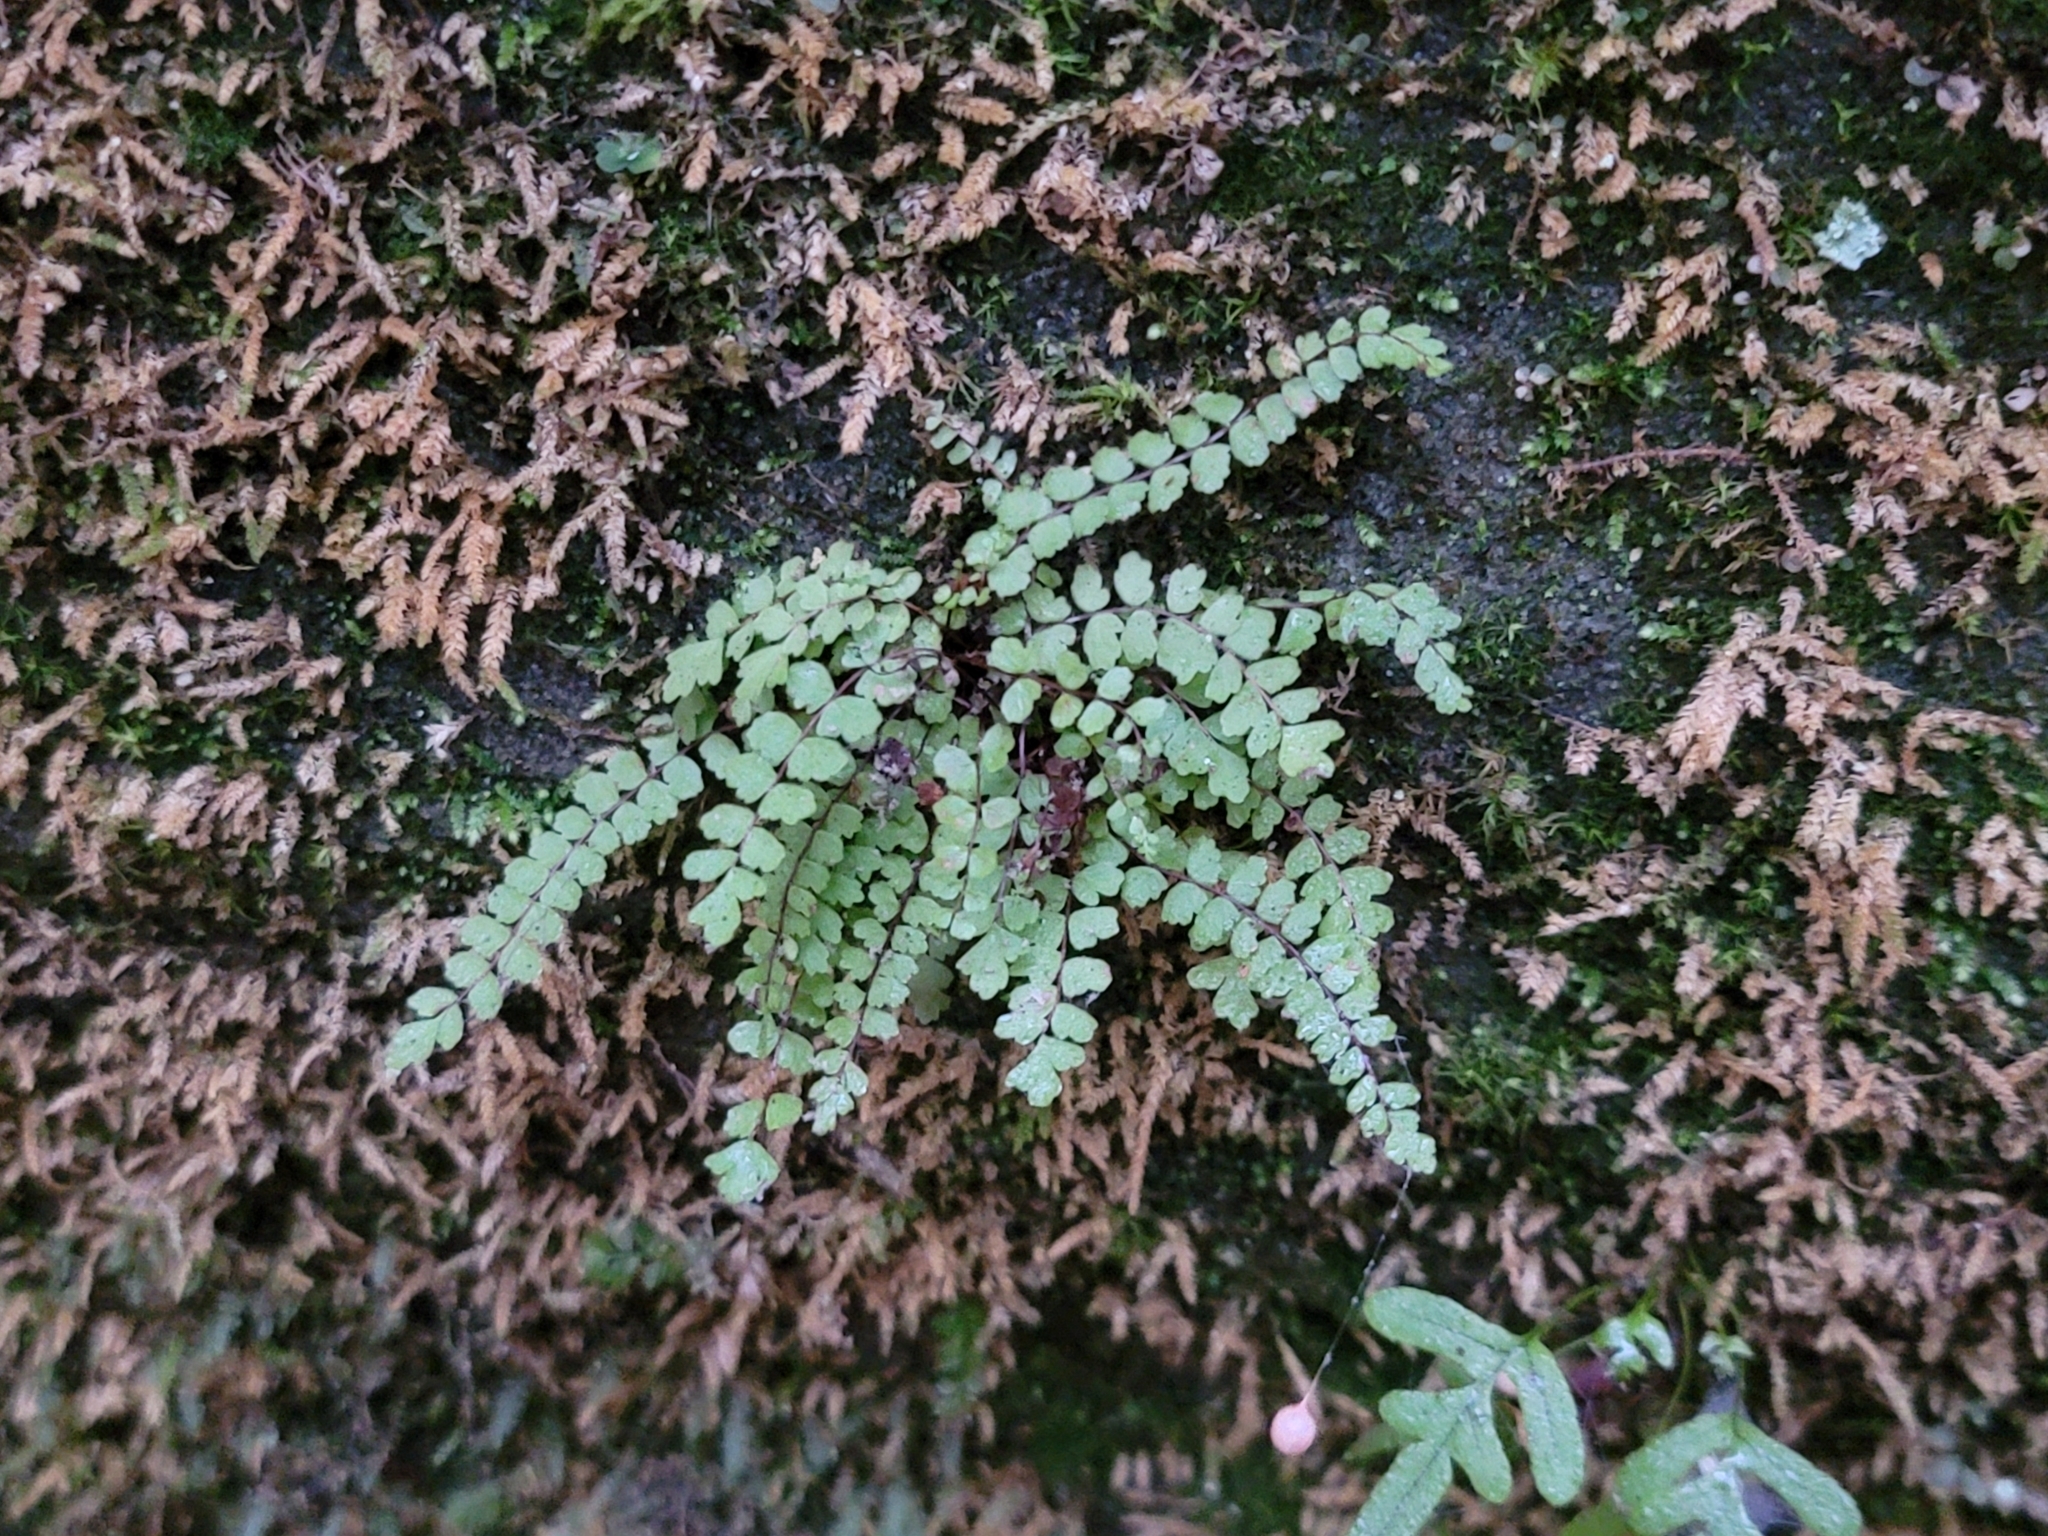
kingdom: Plantae
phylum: Tracheophyta
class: Polypodiopsida
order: Polypodiales
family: Aspleniaceae
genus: Asplenium
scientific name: Asplenium trichomanes
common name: Maidenhair spleenwort
